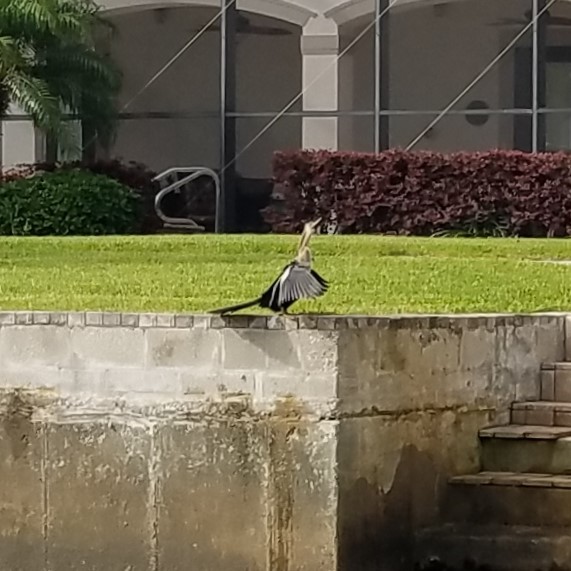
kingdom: Animalia
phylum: Chordata
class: Aves
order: Suliformes
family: Anhingidae
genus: Anhinga
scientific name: Anhinga anhinga
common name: Anhinga
